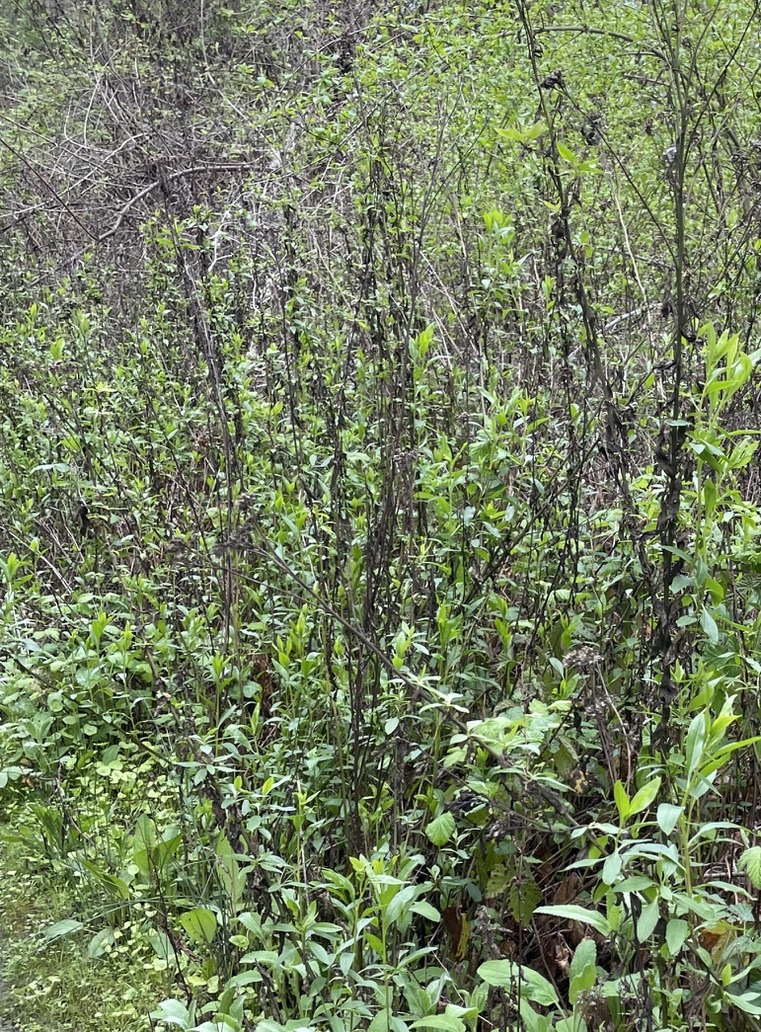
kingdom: Plantae
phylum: Tracheophyta
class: Magnoliopsida
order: Asterales
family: Asteraceae
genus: Baccharis
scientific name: Baccharis glutinosa
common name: Saltmarsh baccharis
